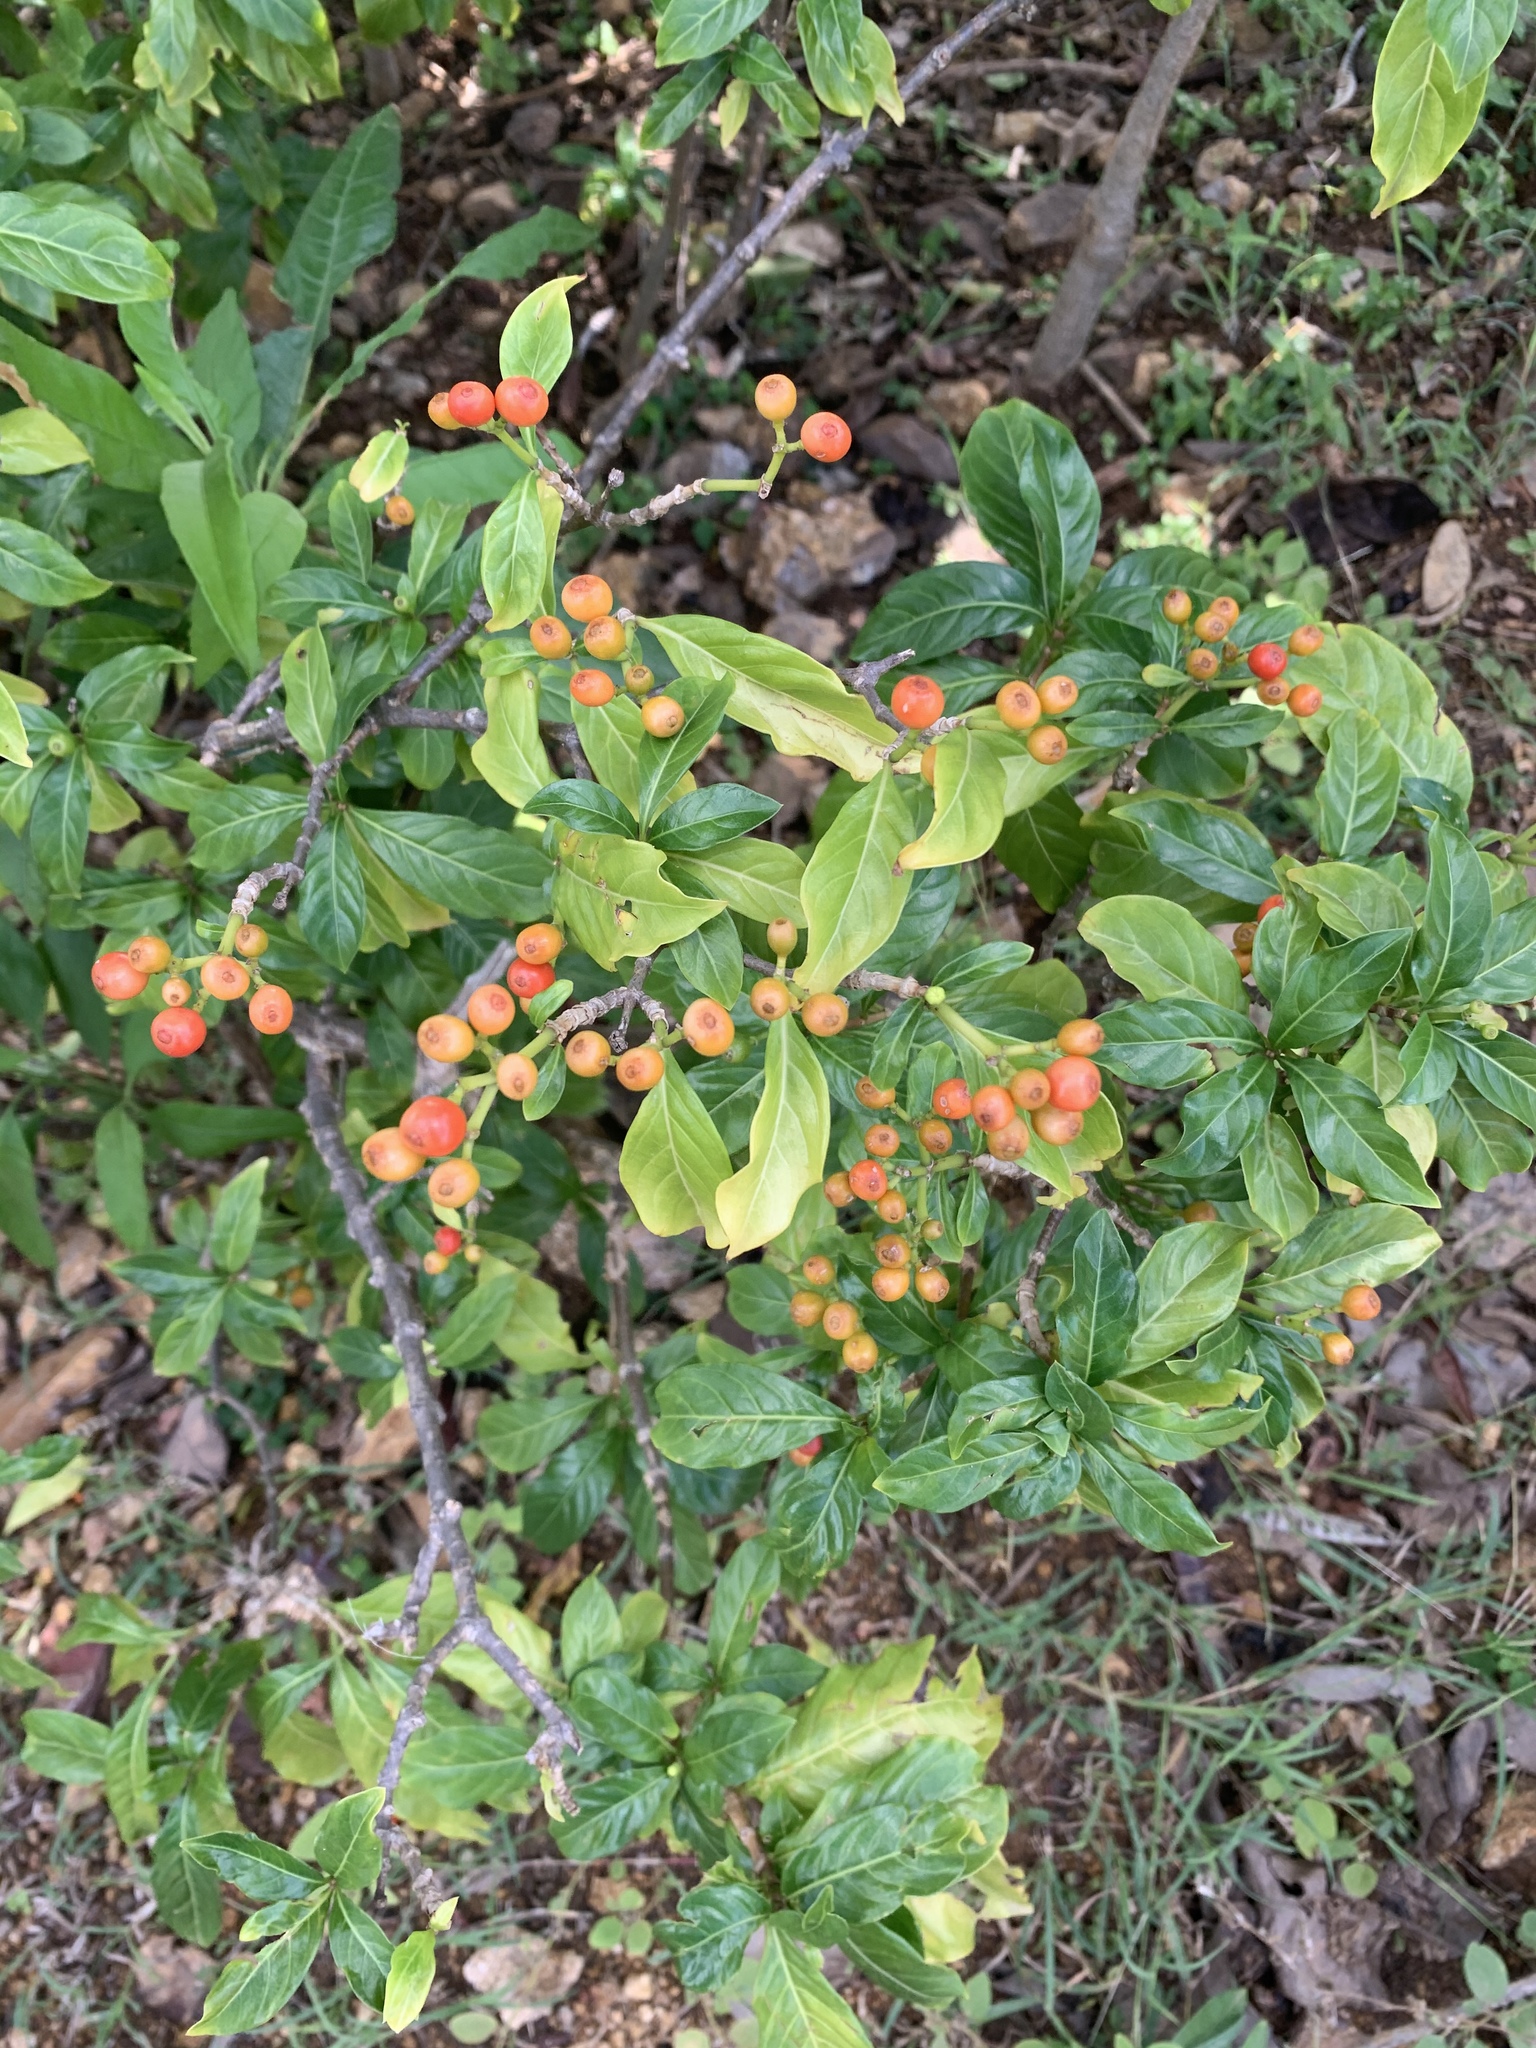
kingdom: Plantae
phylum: Tracheophyta
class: Magnoliopsida
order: Gentianales
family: Rubiaceae
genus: Eumachia
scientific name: Eumachia microdon
